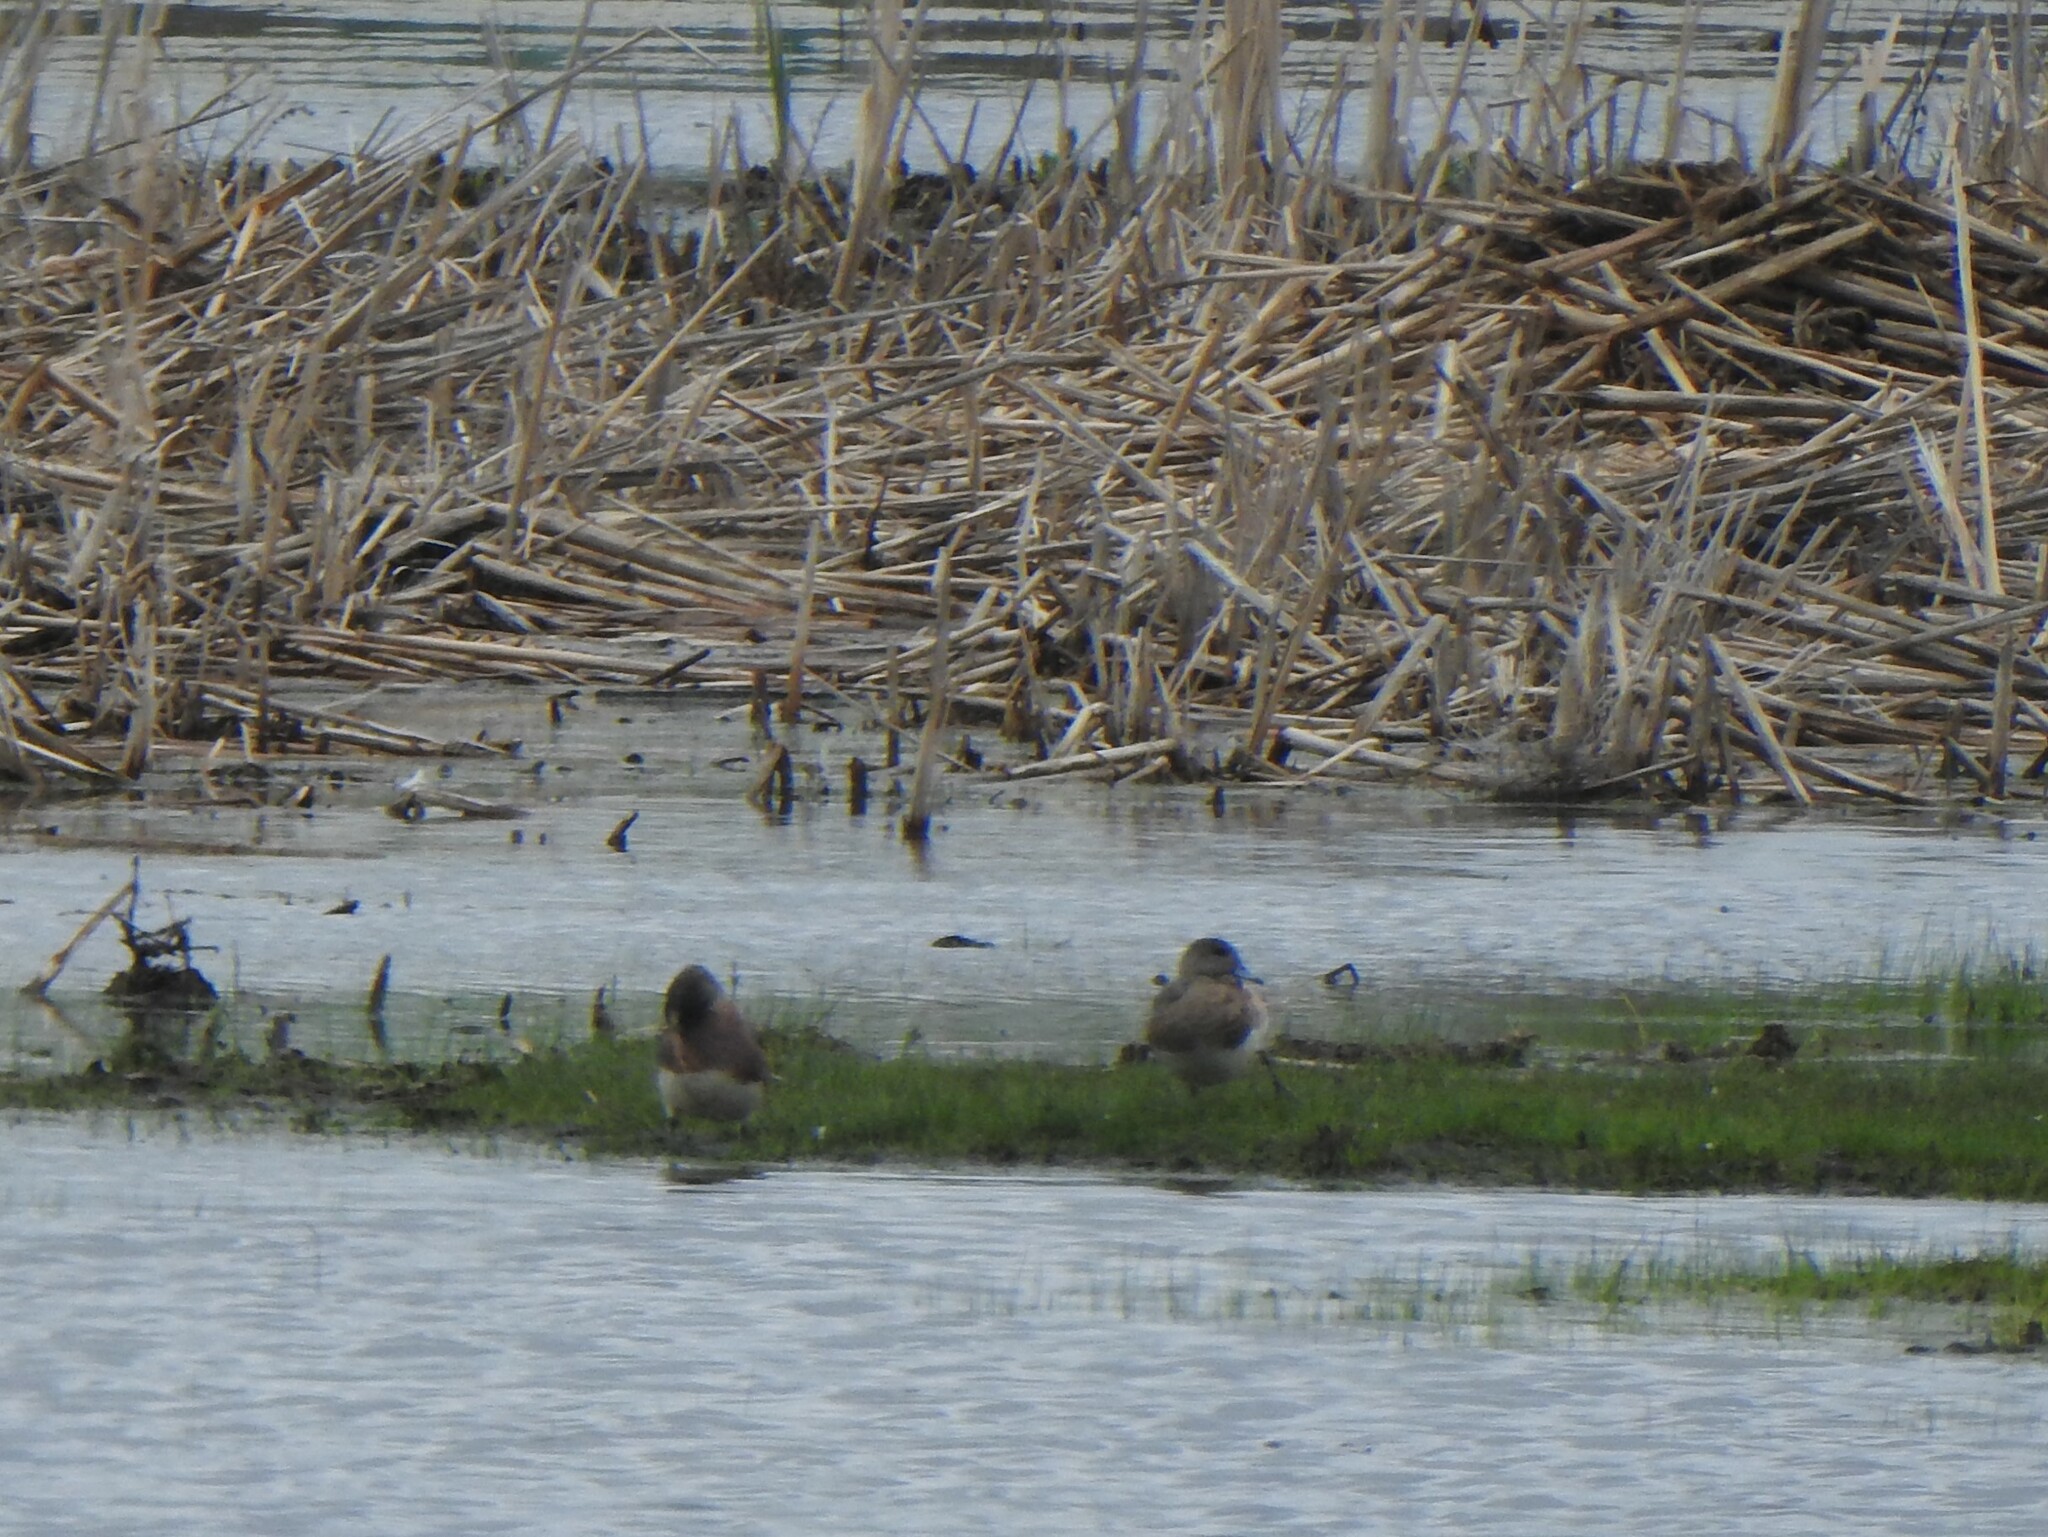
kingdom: Animalia
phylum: Chordata
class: Aves
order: Anseriformes
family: Anatidae
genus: Mareca
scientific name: Mareca americana
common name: American wigeon
